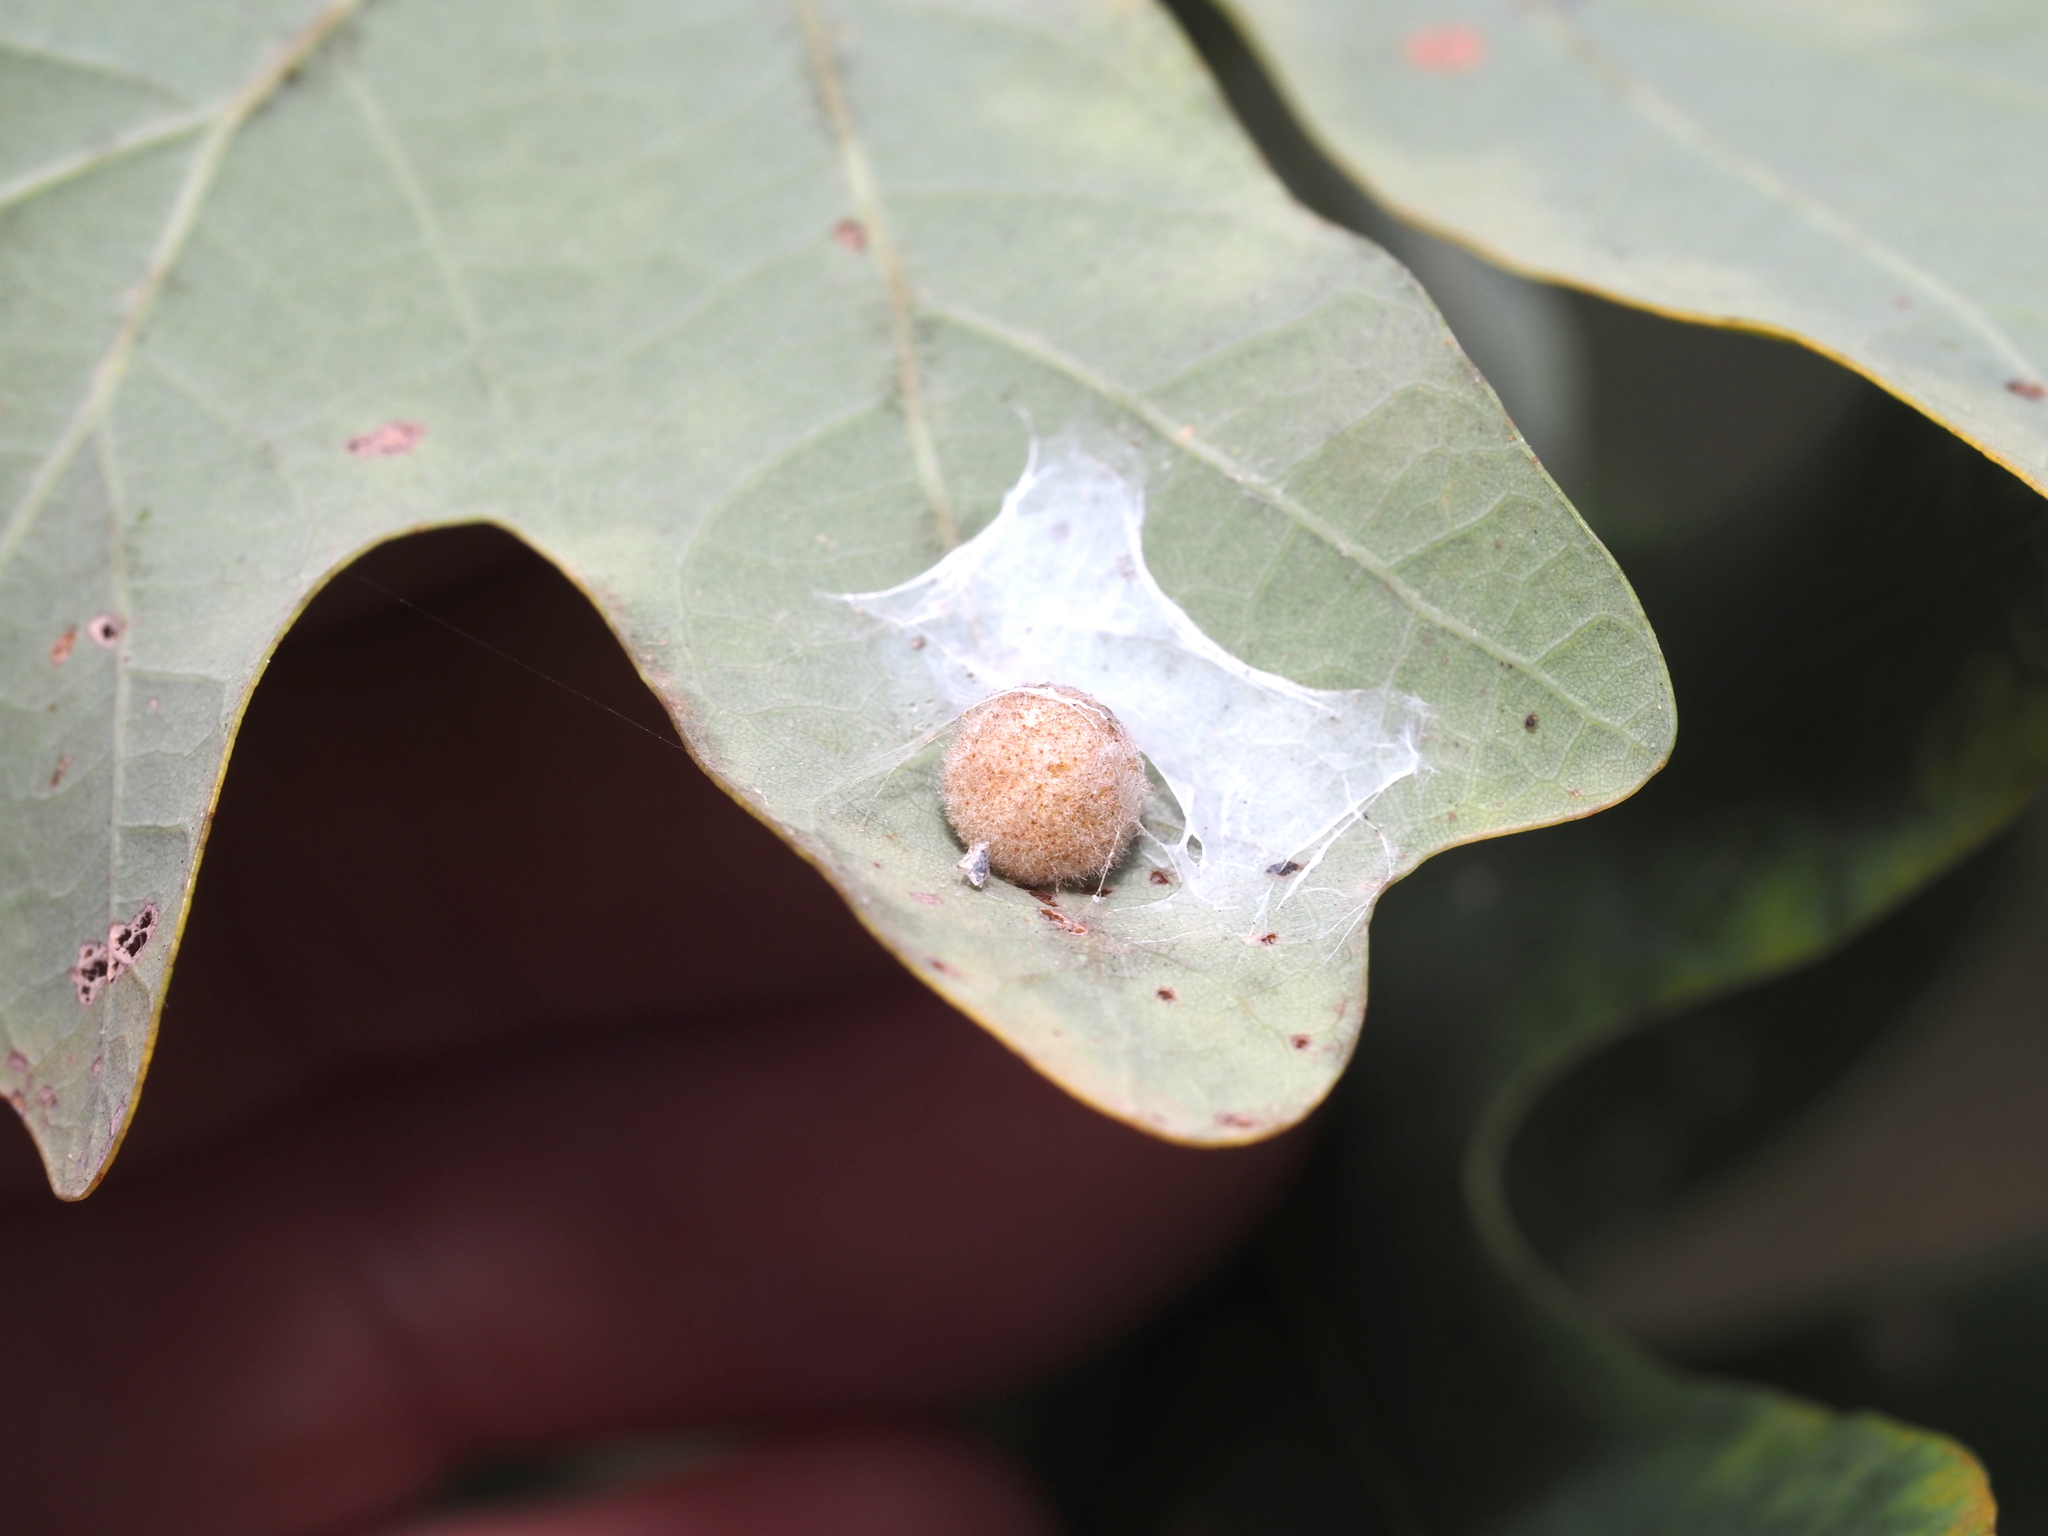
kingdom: Animalia
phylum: Arthropoda
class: Insecta
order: Hymenoptera
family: Cynipidae
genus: Philonix
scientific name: Philonix fulvicollis
